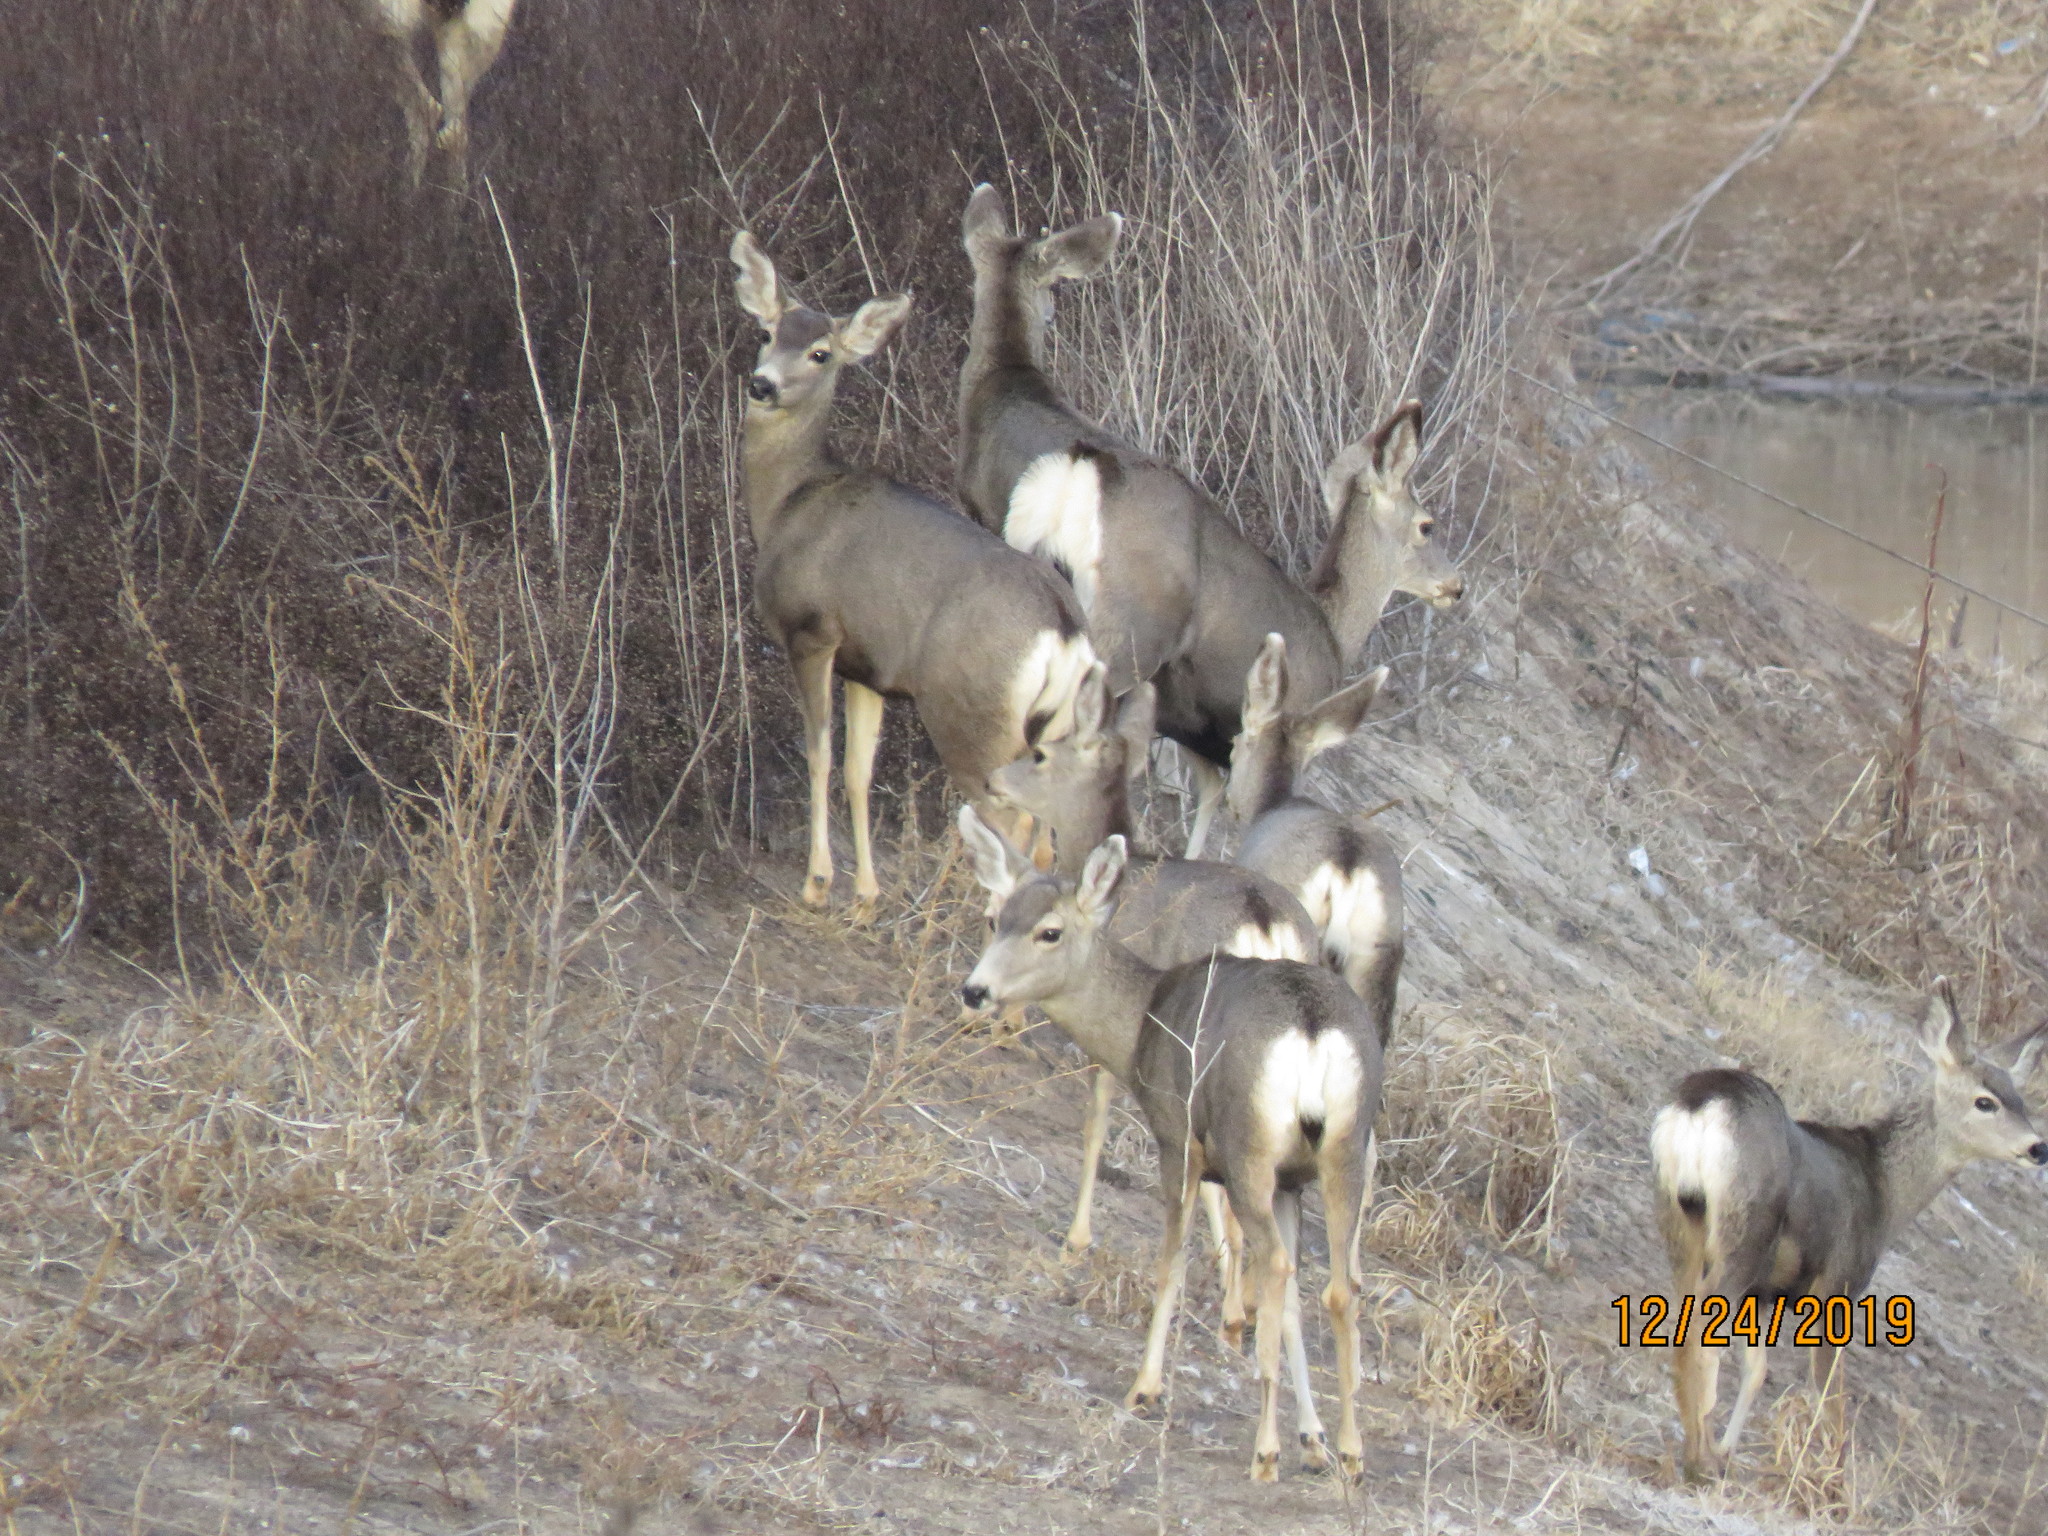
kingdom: Animalia
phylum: Chordata
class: Mammalia
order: Artiodactyla
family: Cervidae
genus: Odocoileus
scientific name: Odocoileus hemionus
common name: Mule deer
